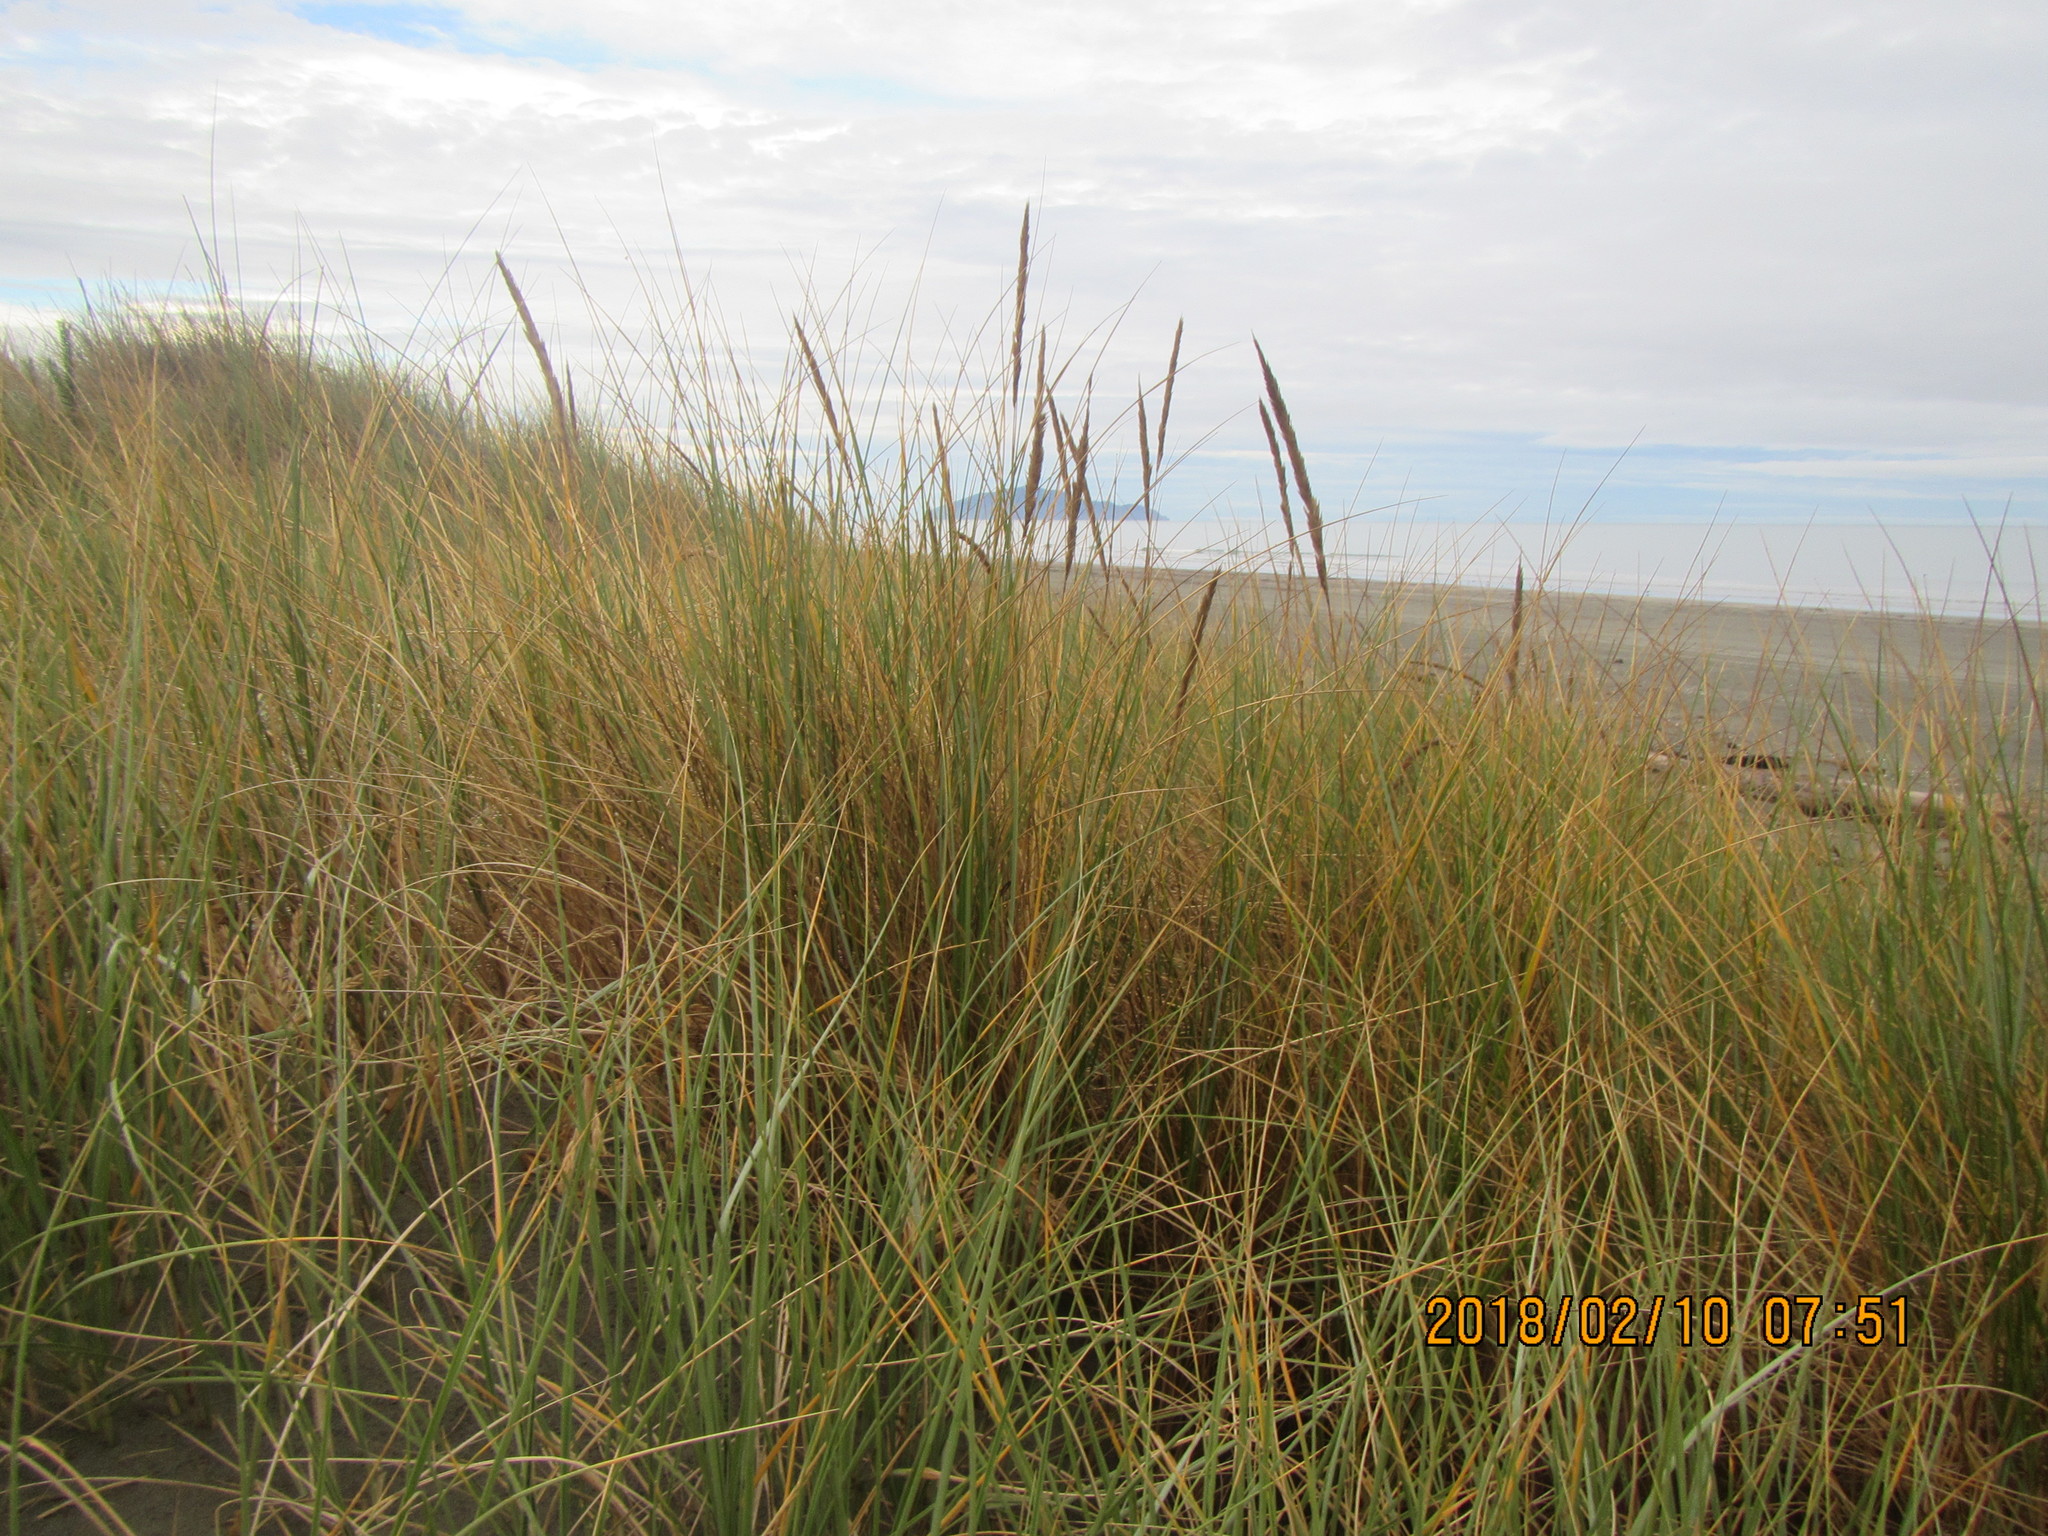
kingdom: Plantae
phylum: Tracheophyta
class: Liliopsida
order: Poales
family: Poaceae
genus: Calamagrostis
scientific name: Calamagrostis arenaria
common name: European beachgrass
